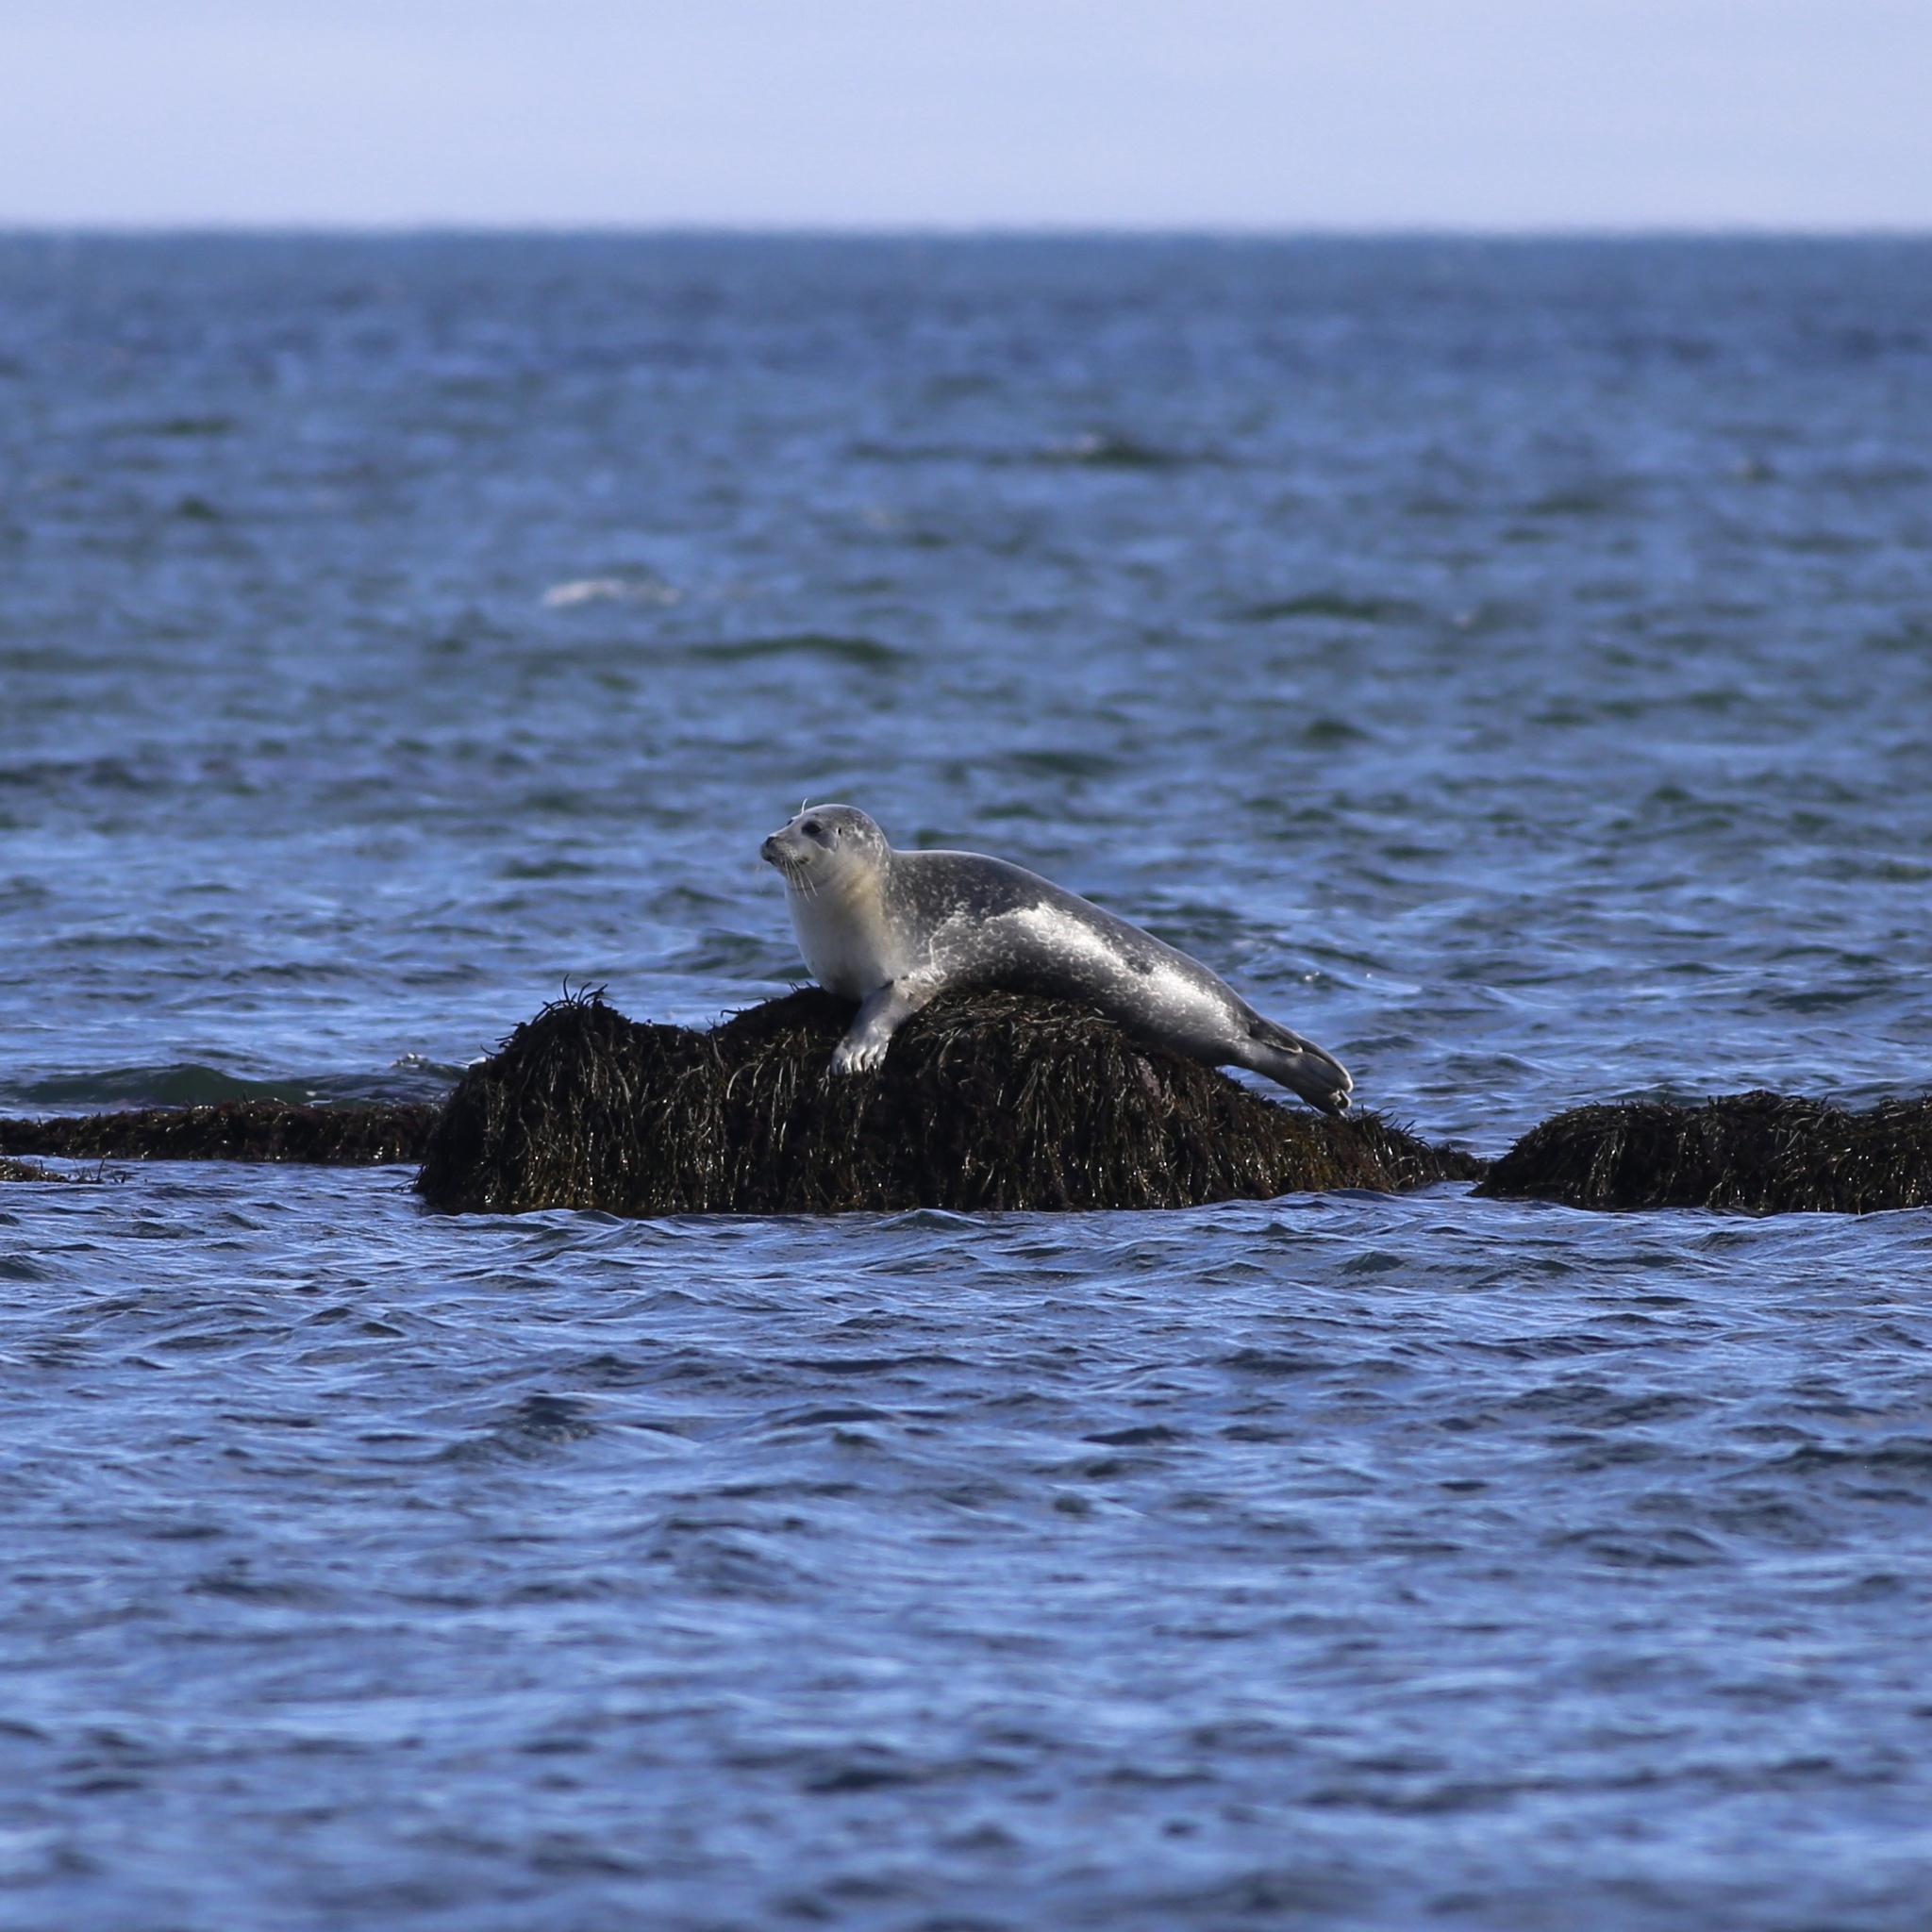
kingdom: Animalia
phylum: Chordata
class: Mammalia
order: Carnivora
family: Phocidae
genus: Phoca
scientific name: Phoca vitulina
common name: Harbor seal
